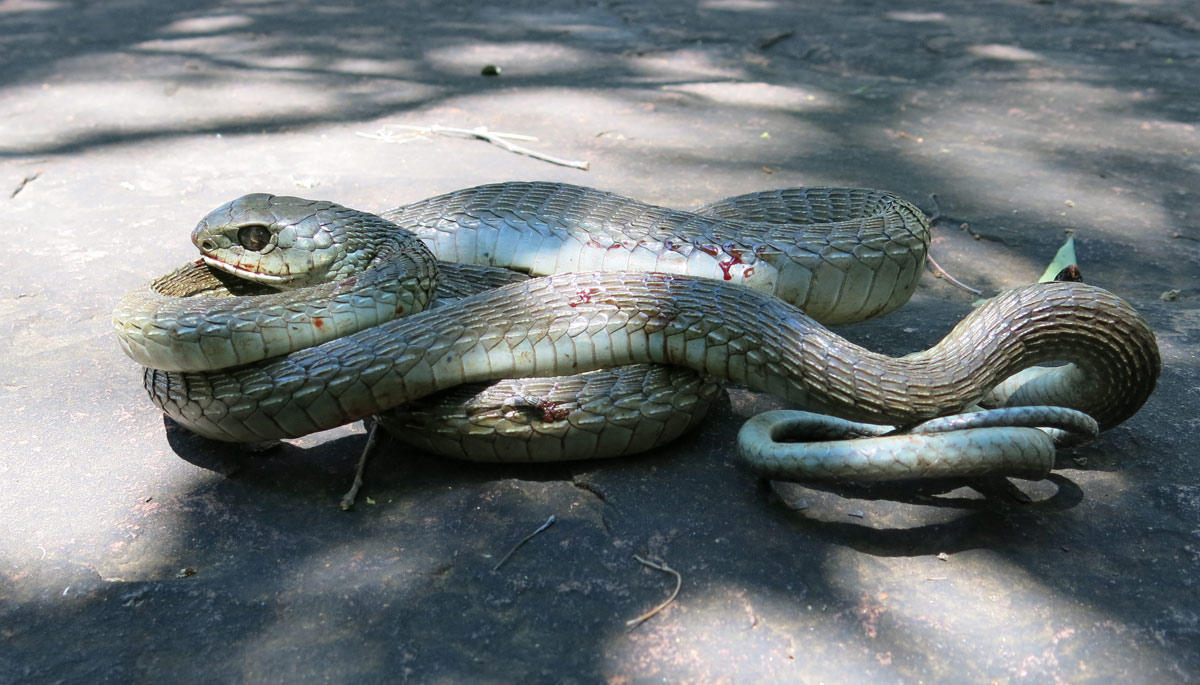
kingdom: Animalia
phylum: Chordata
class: Squamata
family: Colubridae
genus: Dispholidus
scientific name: Dispholidus typus
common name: Boomslang
